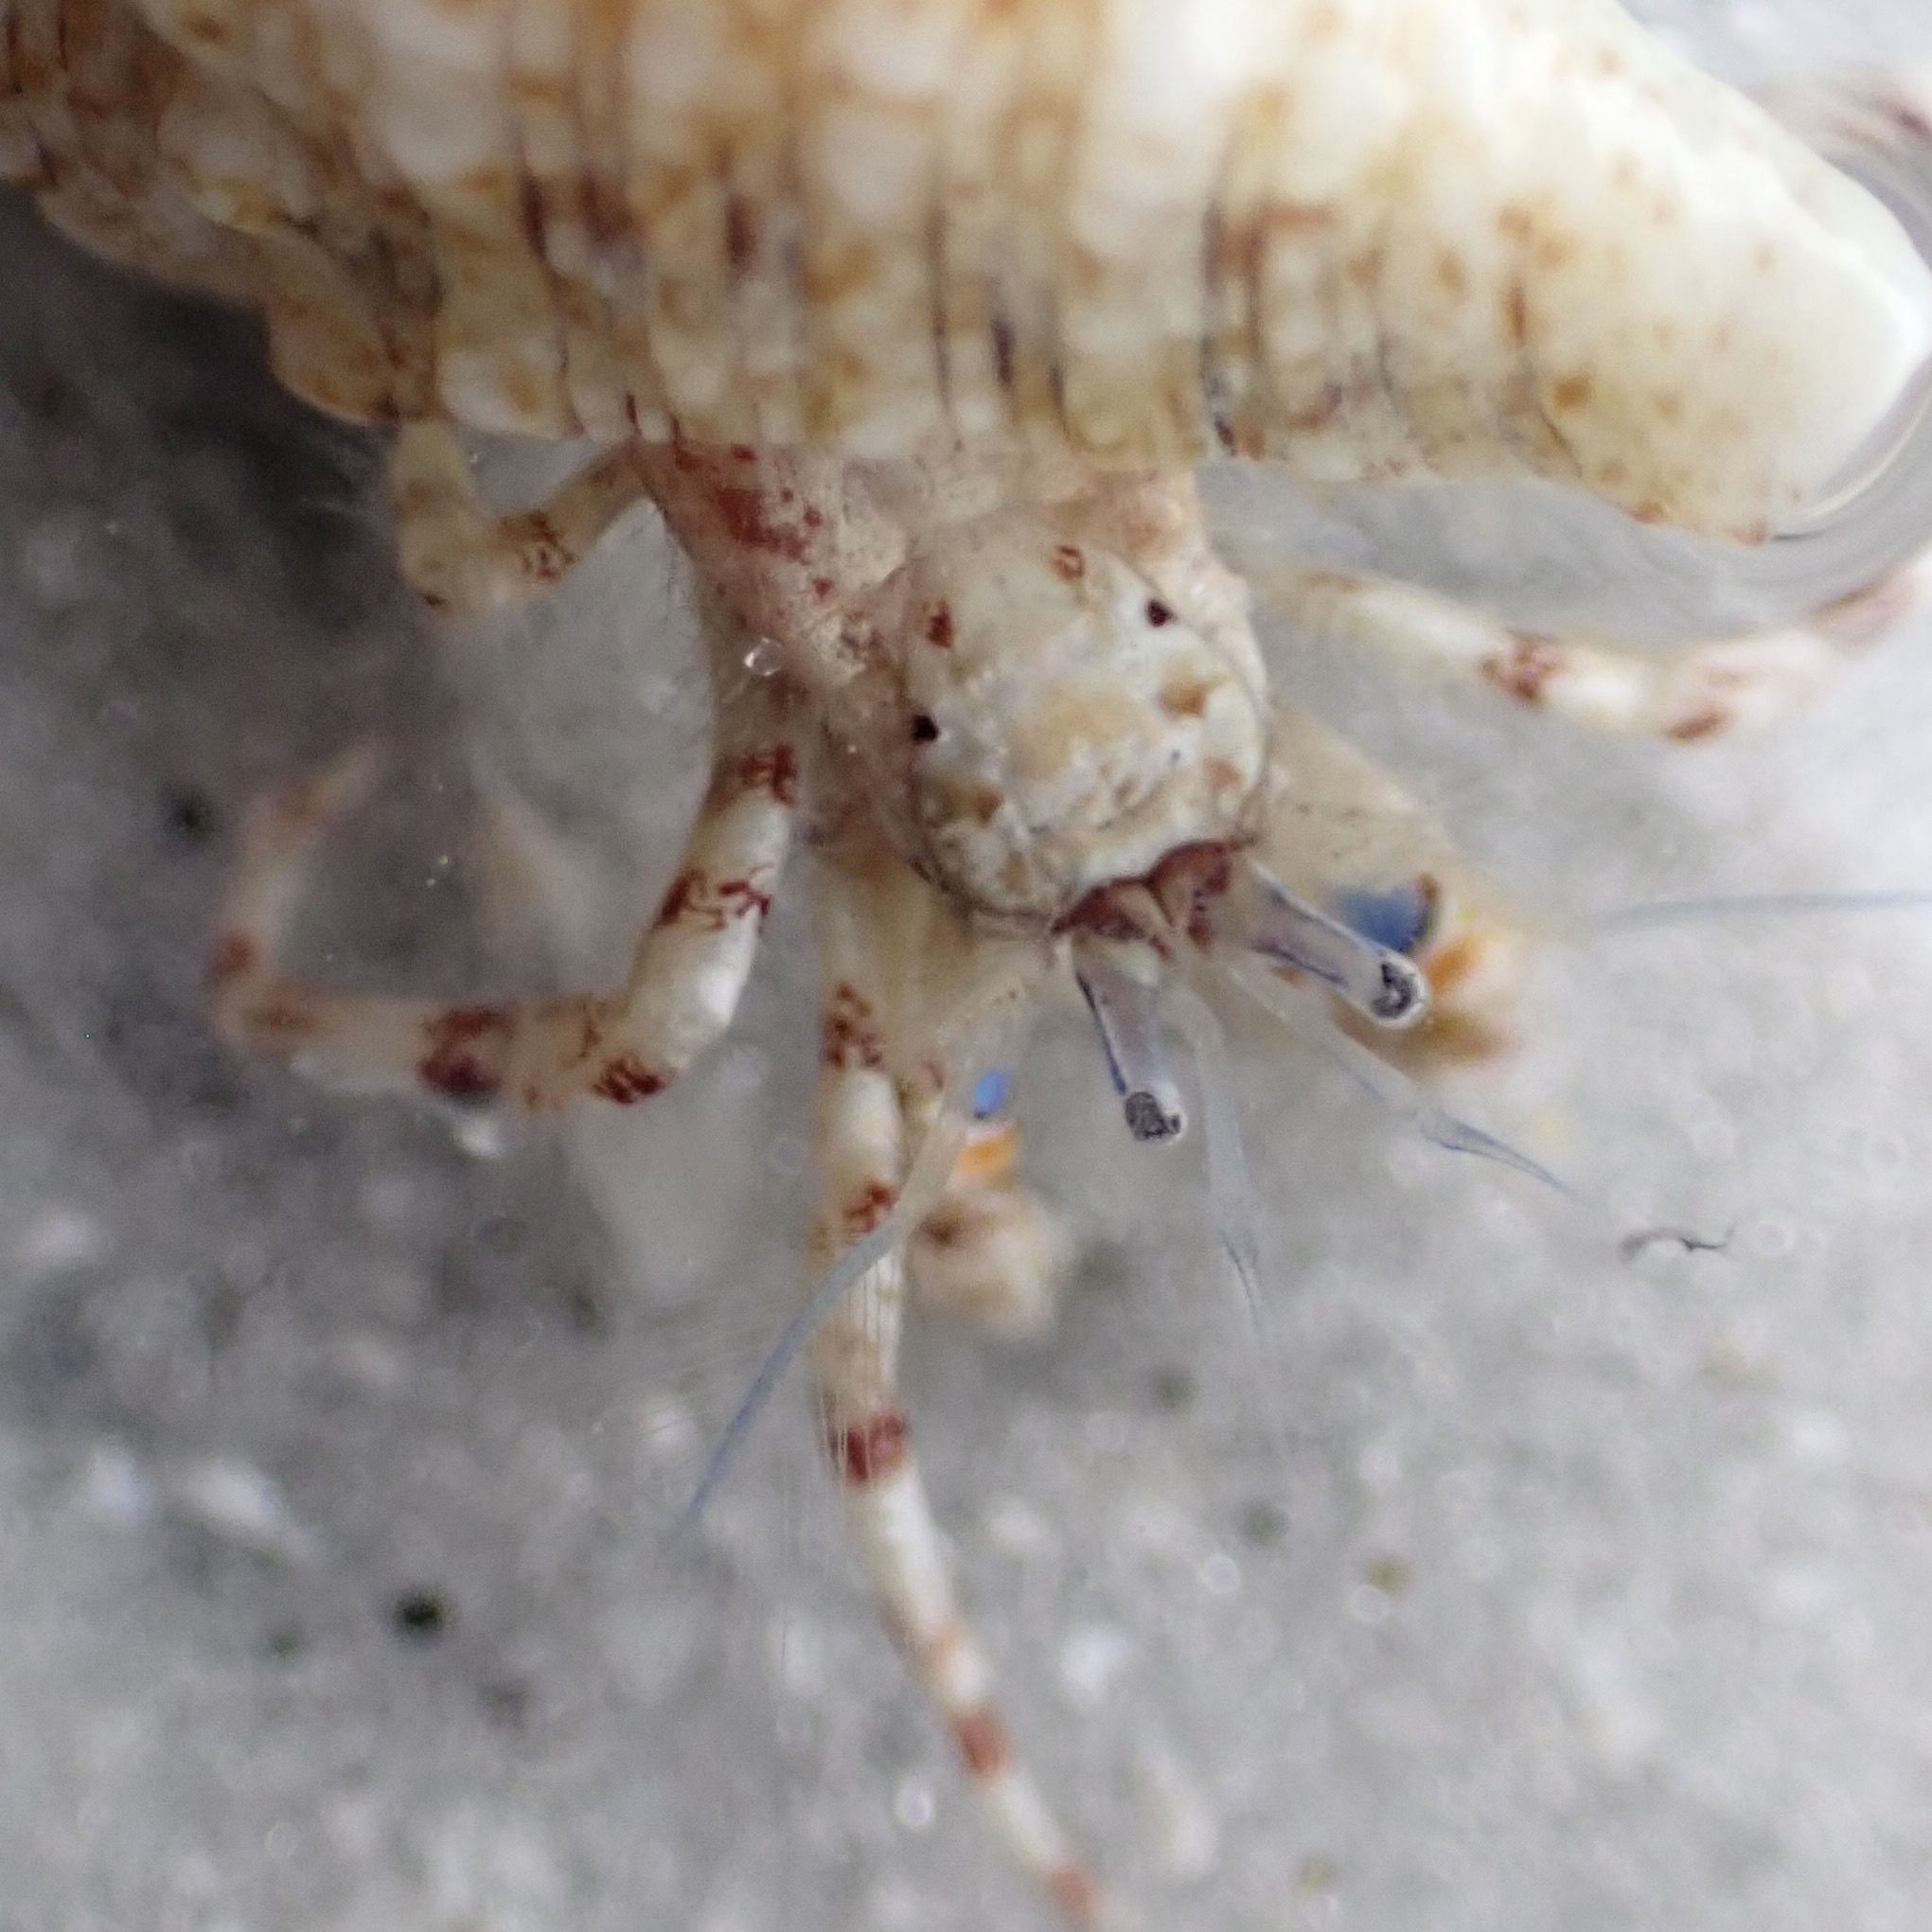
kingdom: Animalia
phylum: Arthropoda
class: Malacostraca
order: Decapoda
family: Diogenidae
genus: Areopaguristes
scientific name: Areopaguristes hummi
